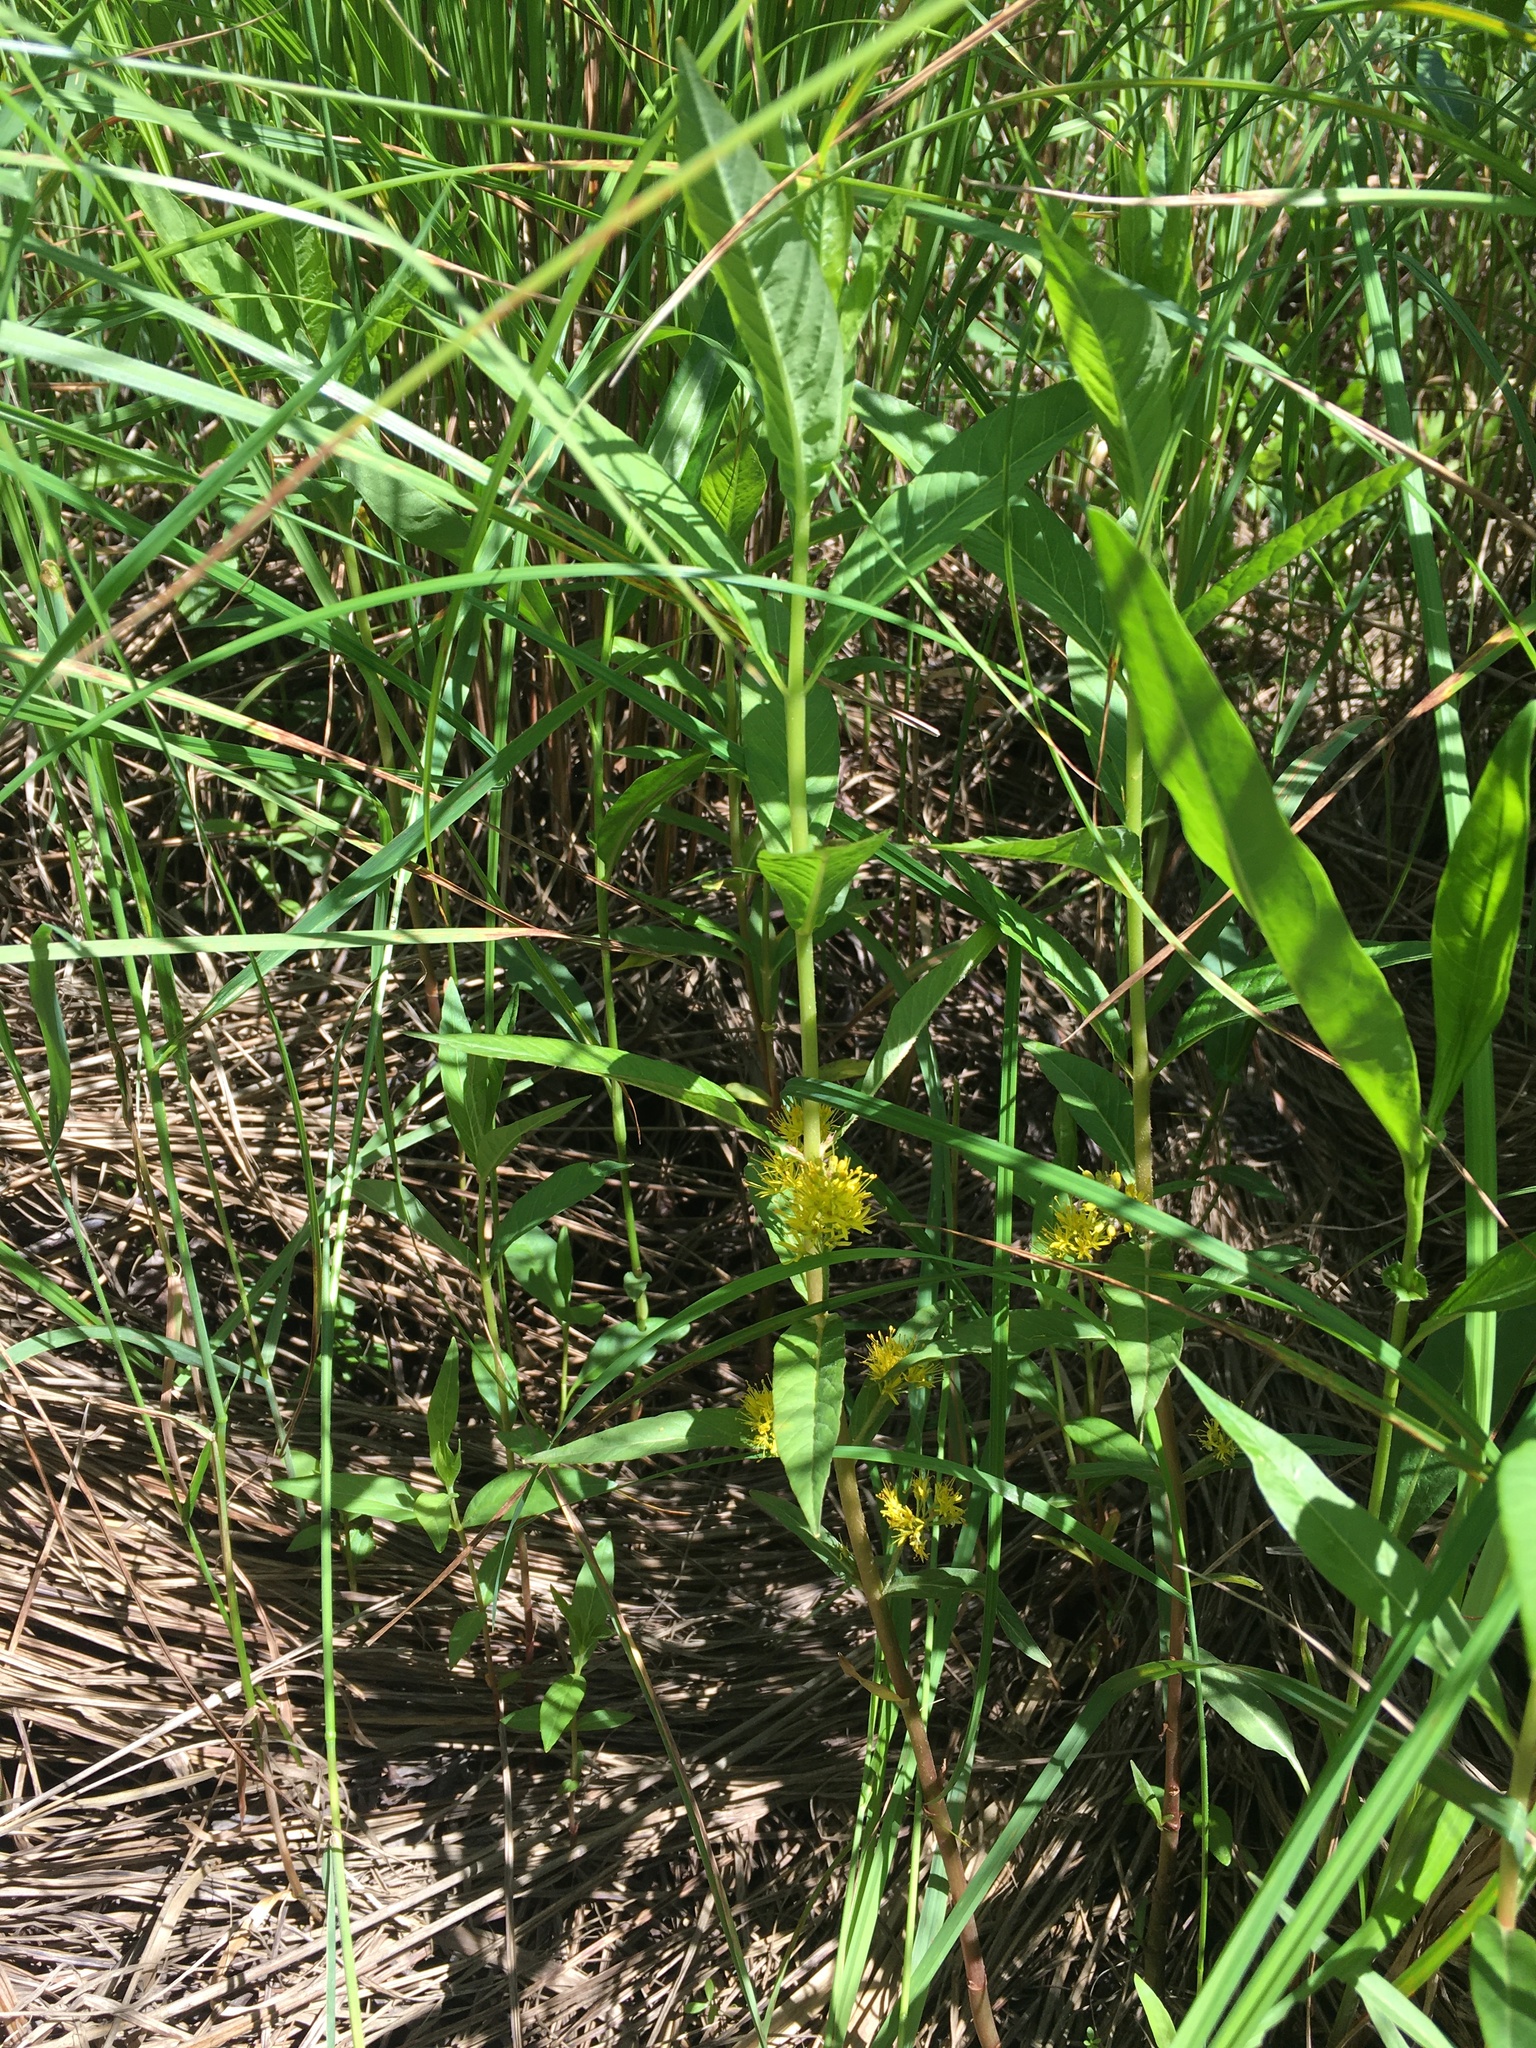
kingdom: Plantae
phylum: Tracheophyta
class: Magnoliopsida
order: Ericales
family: Primulaceae
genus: Lysimachia
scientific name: Lysimachia thyrsiflora
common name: Tufted loosestrife
